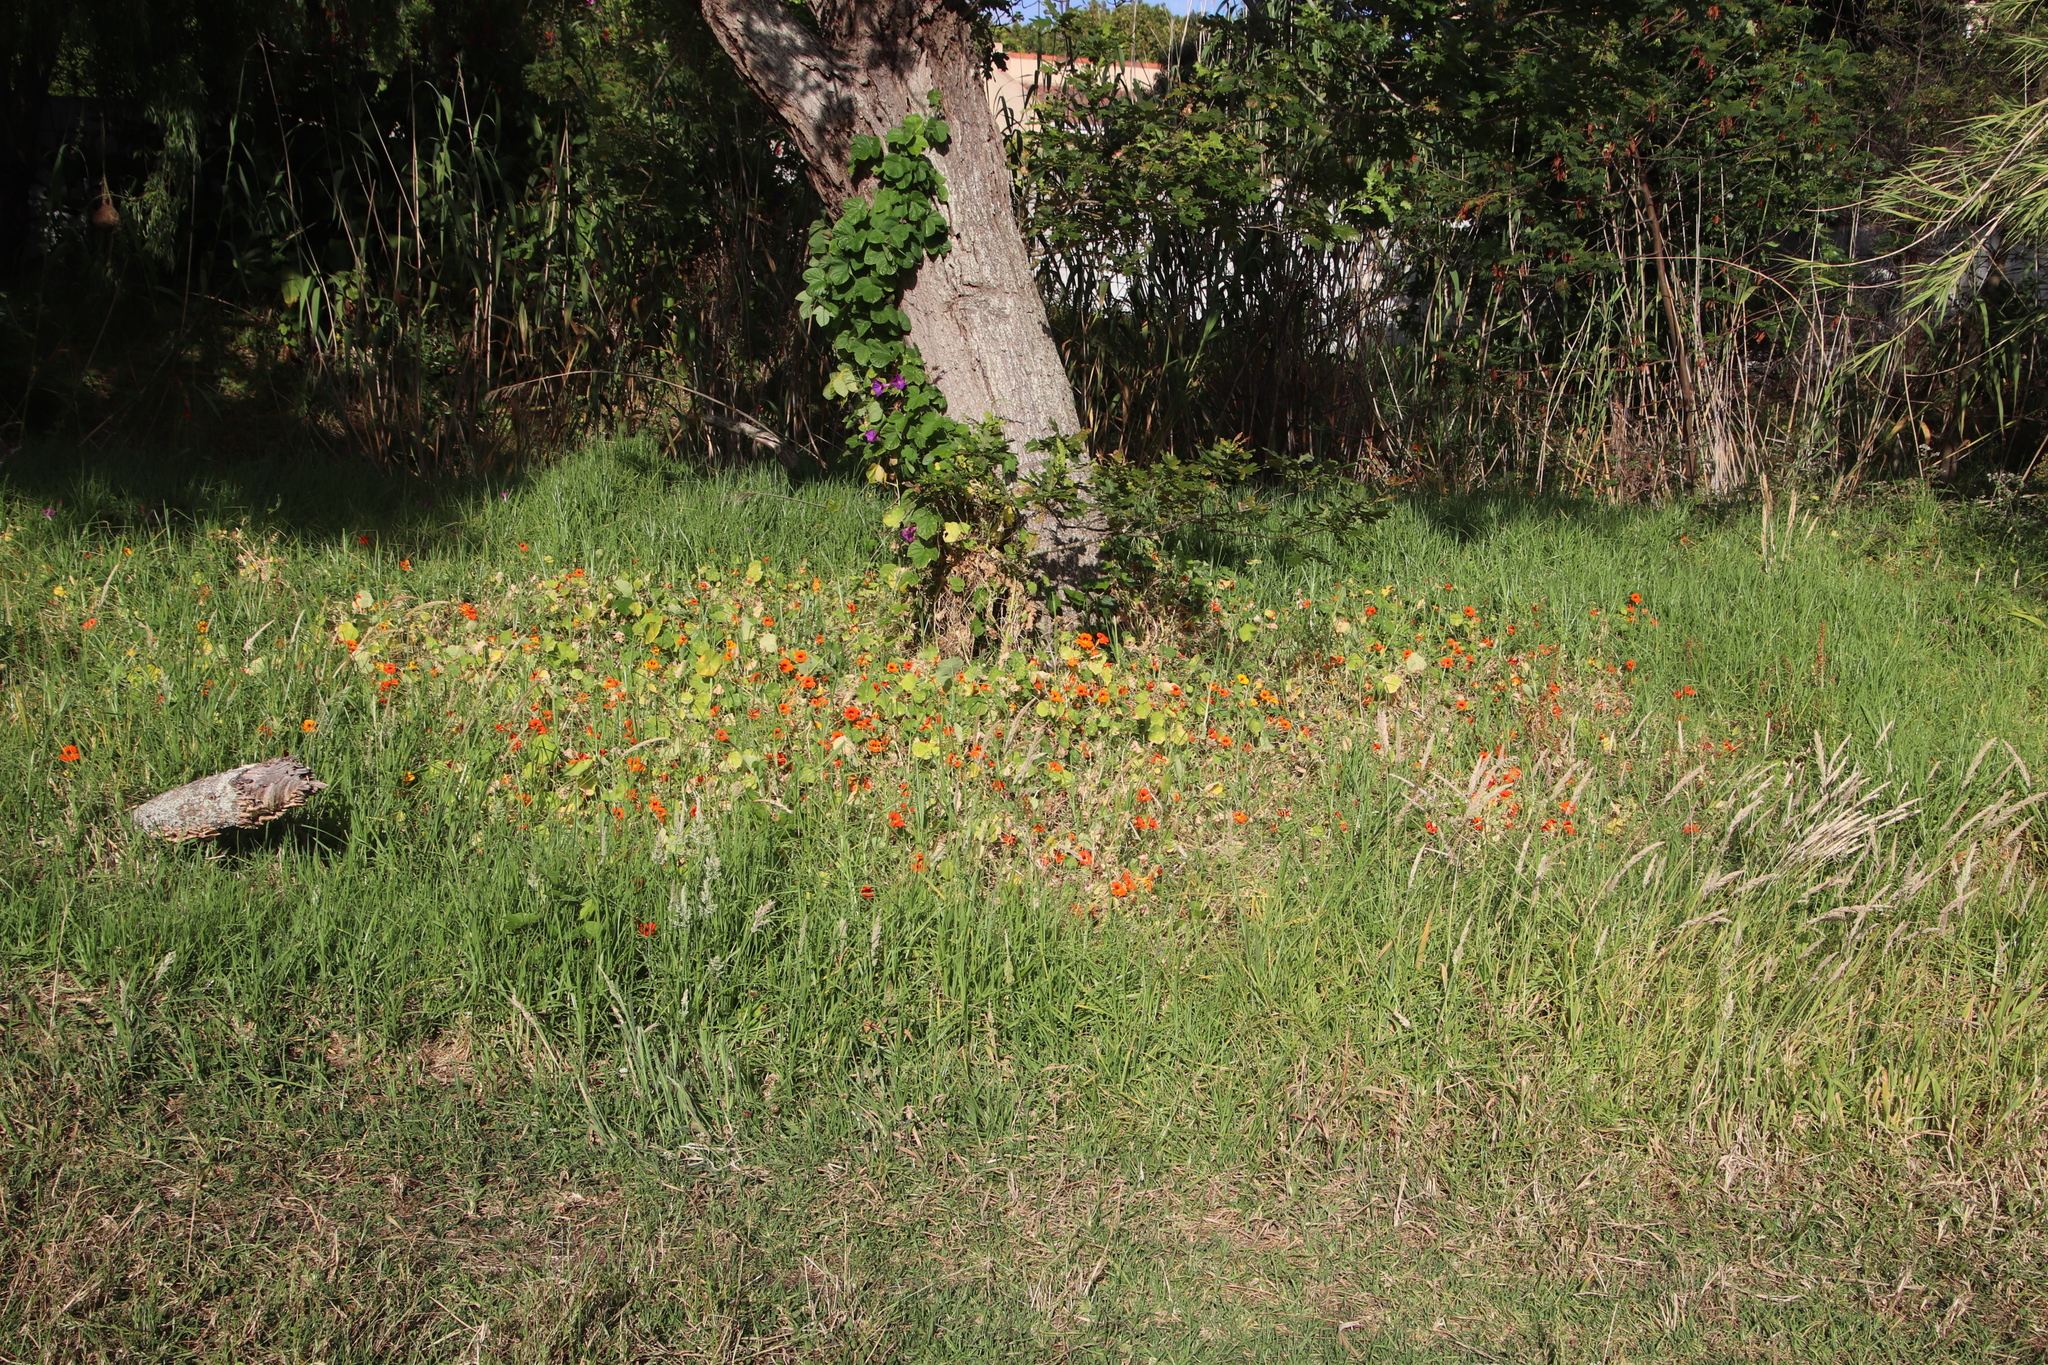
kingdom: Plantae
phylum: Tracheophyta
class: Magnoliopsida
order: Brassicales
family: Tropaeolaceae
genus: Tropaeolum
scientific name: Tropaeolum majus
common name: Nasturtium
